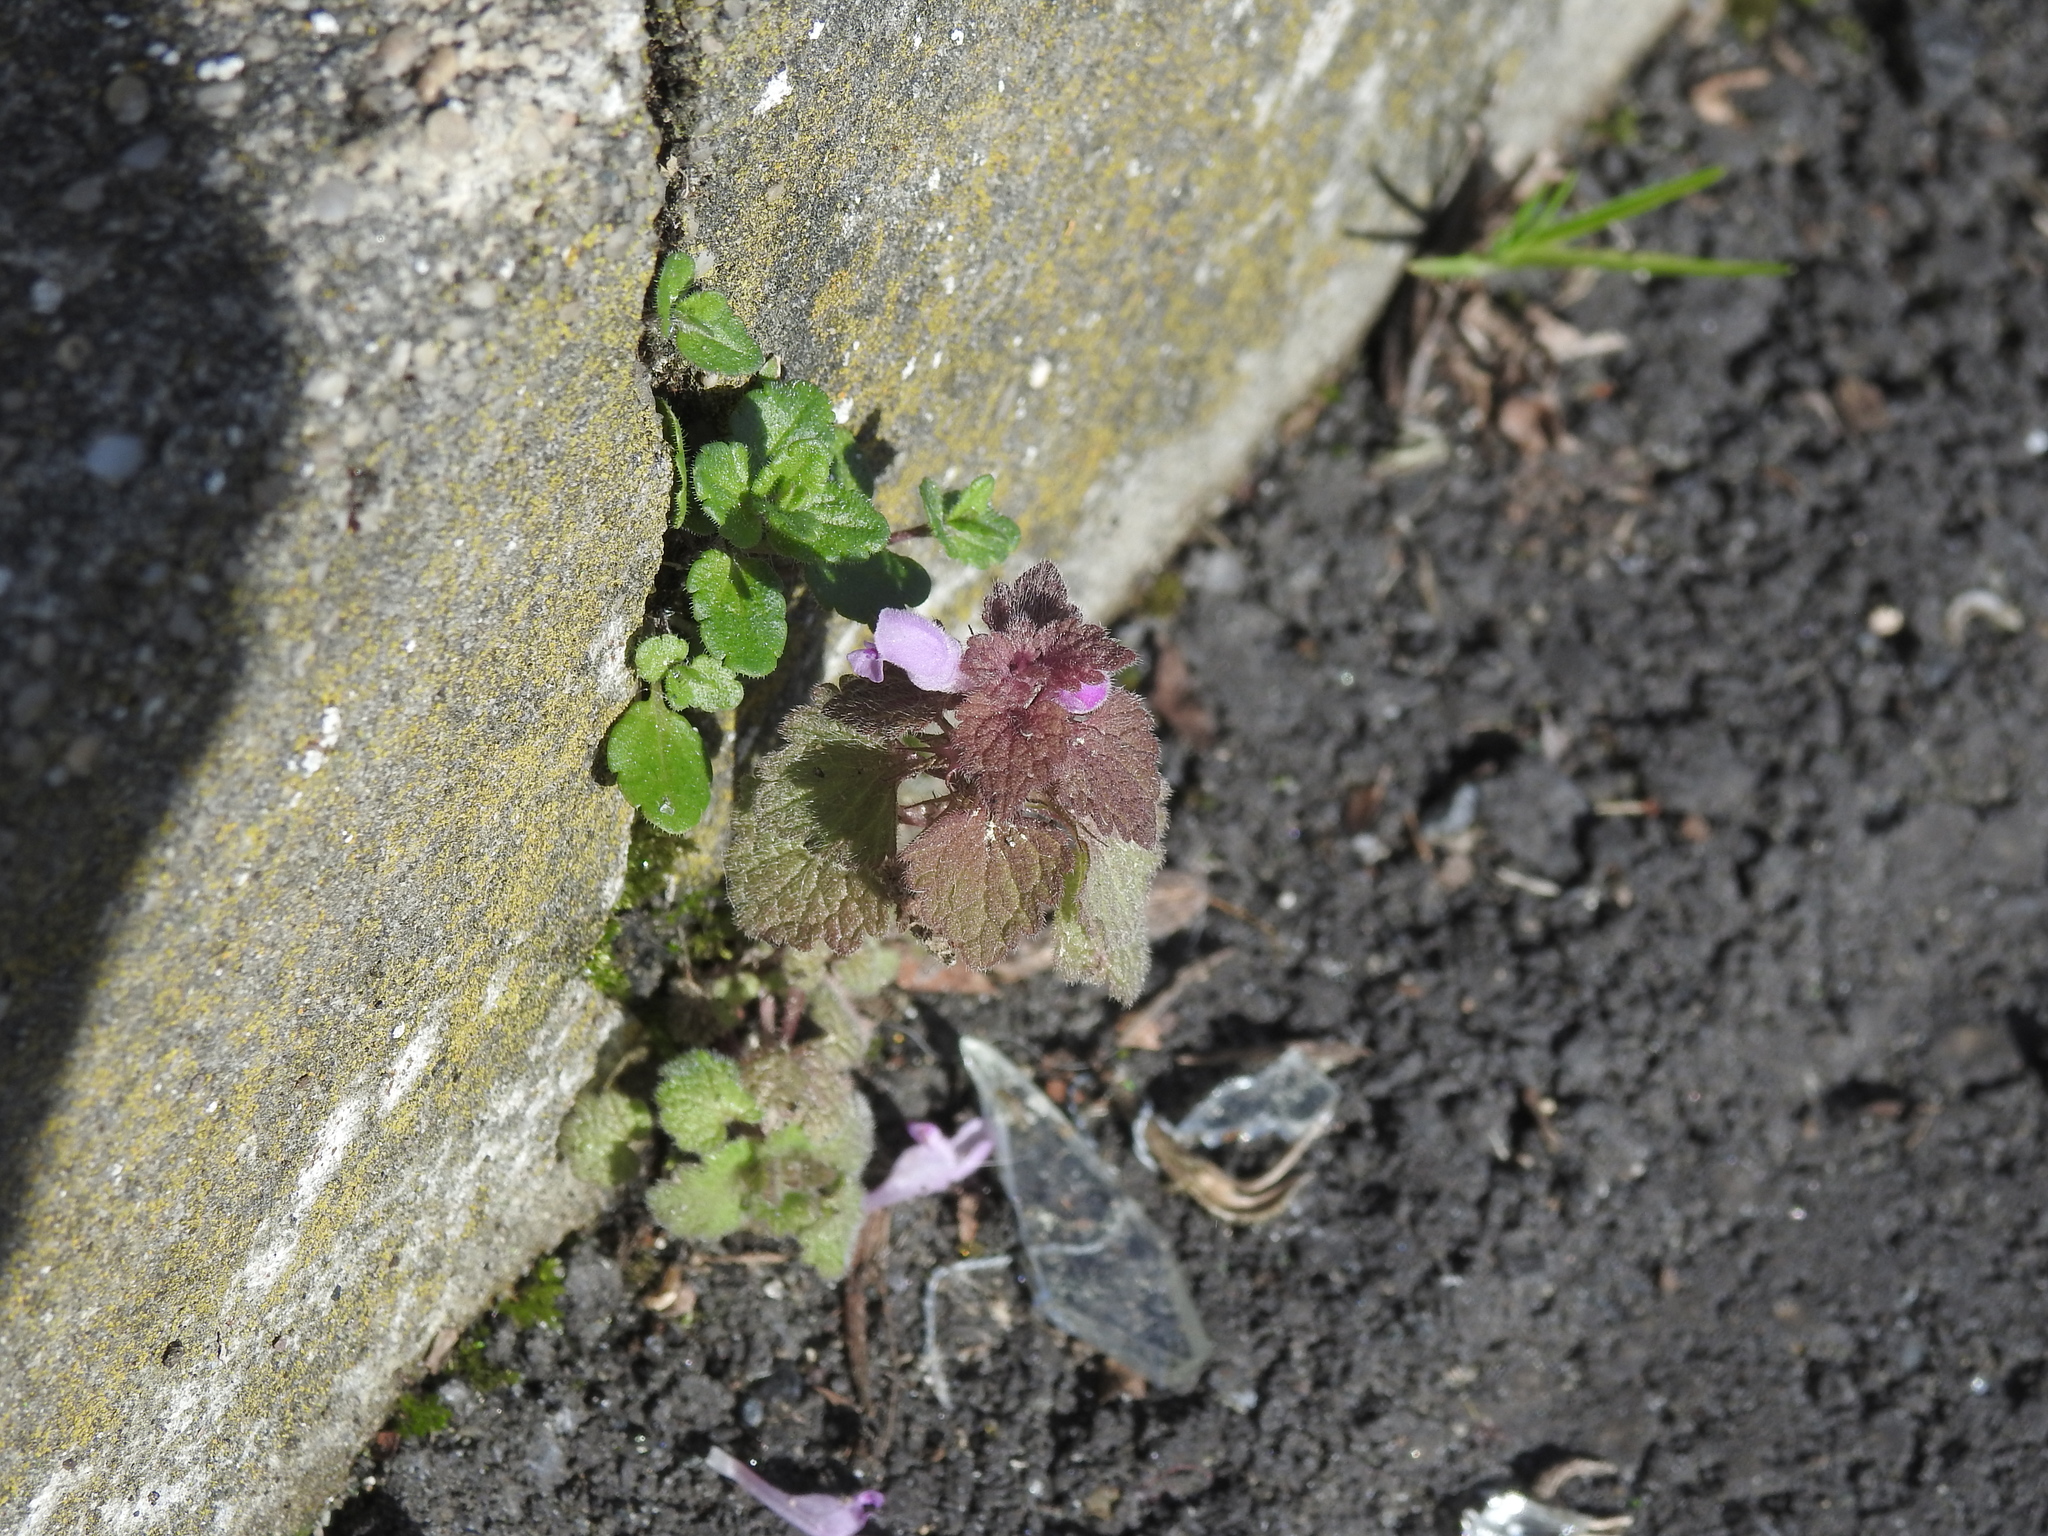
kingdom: Plantae
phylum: Tracheophyta
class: Magnoliopsida
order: Lamiales
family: Lamiaceae
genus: Lamium
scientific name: Lamium purpureum
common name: Red dead-nettle
